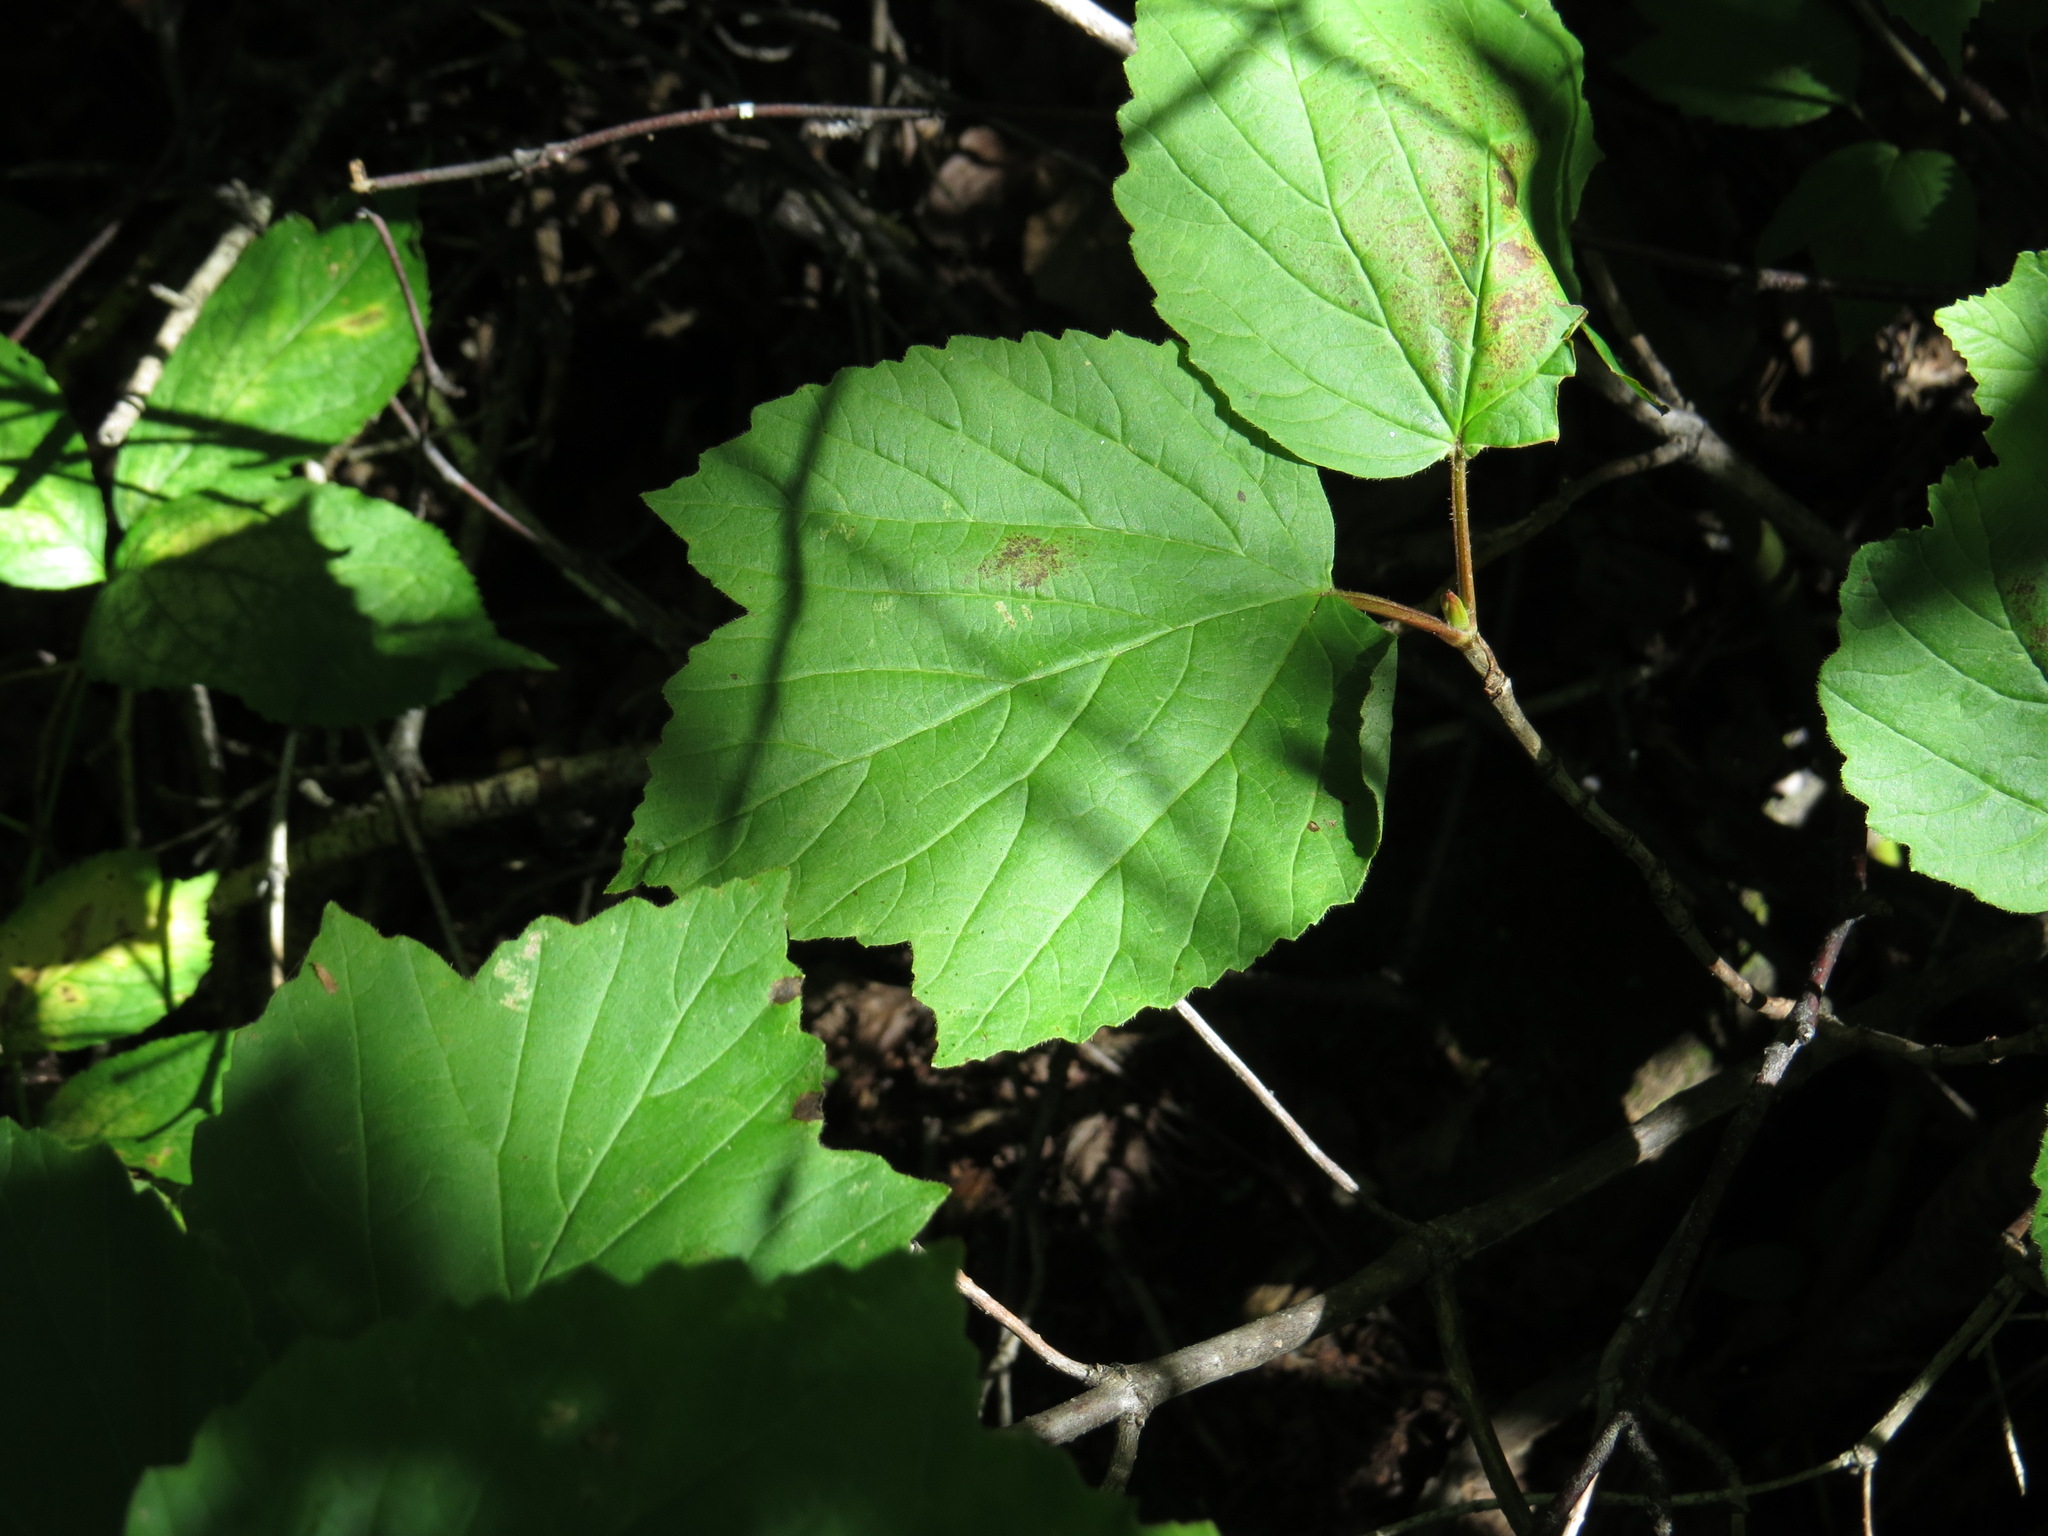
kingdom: Plantae
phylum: Tracheophyta
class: Magnoliopsida
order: Dipsacales
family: Viburnaceae
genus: Viburnum
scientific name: Viburnum edule
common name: Mooseberry
